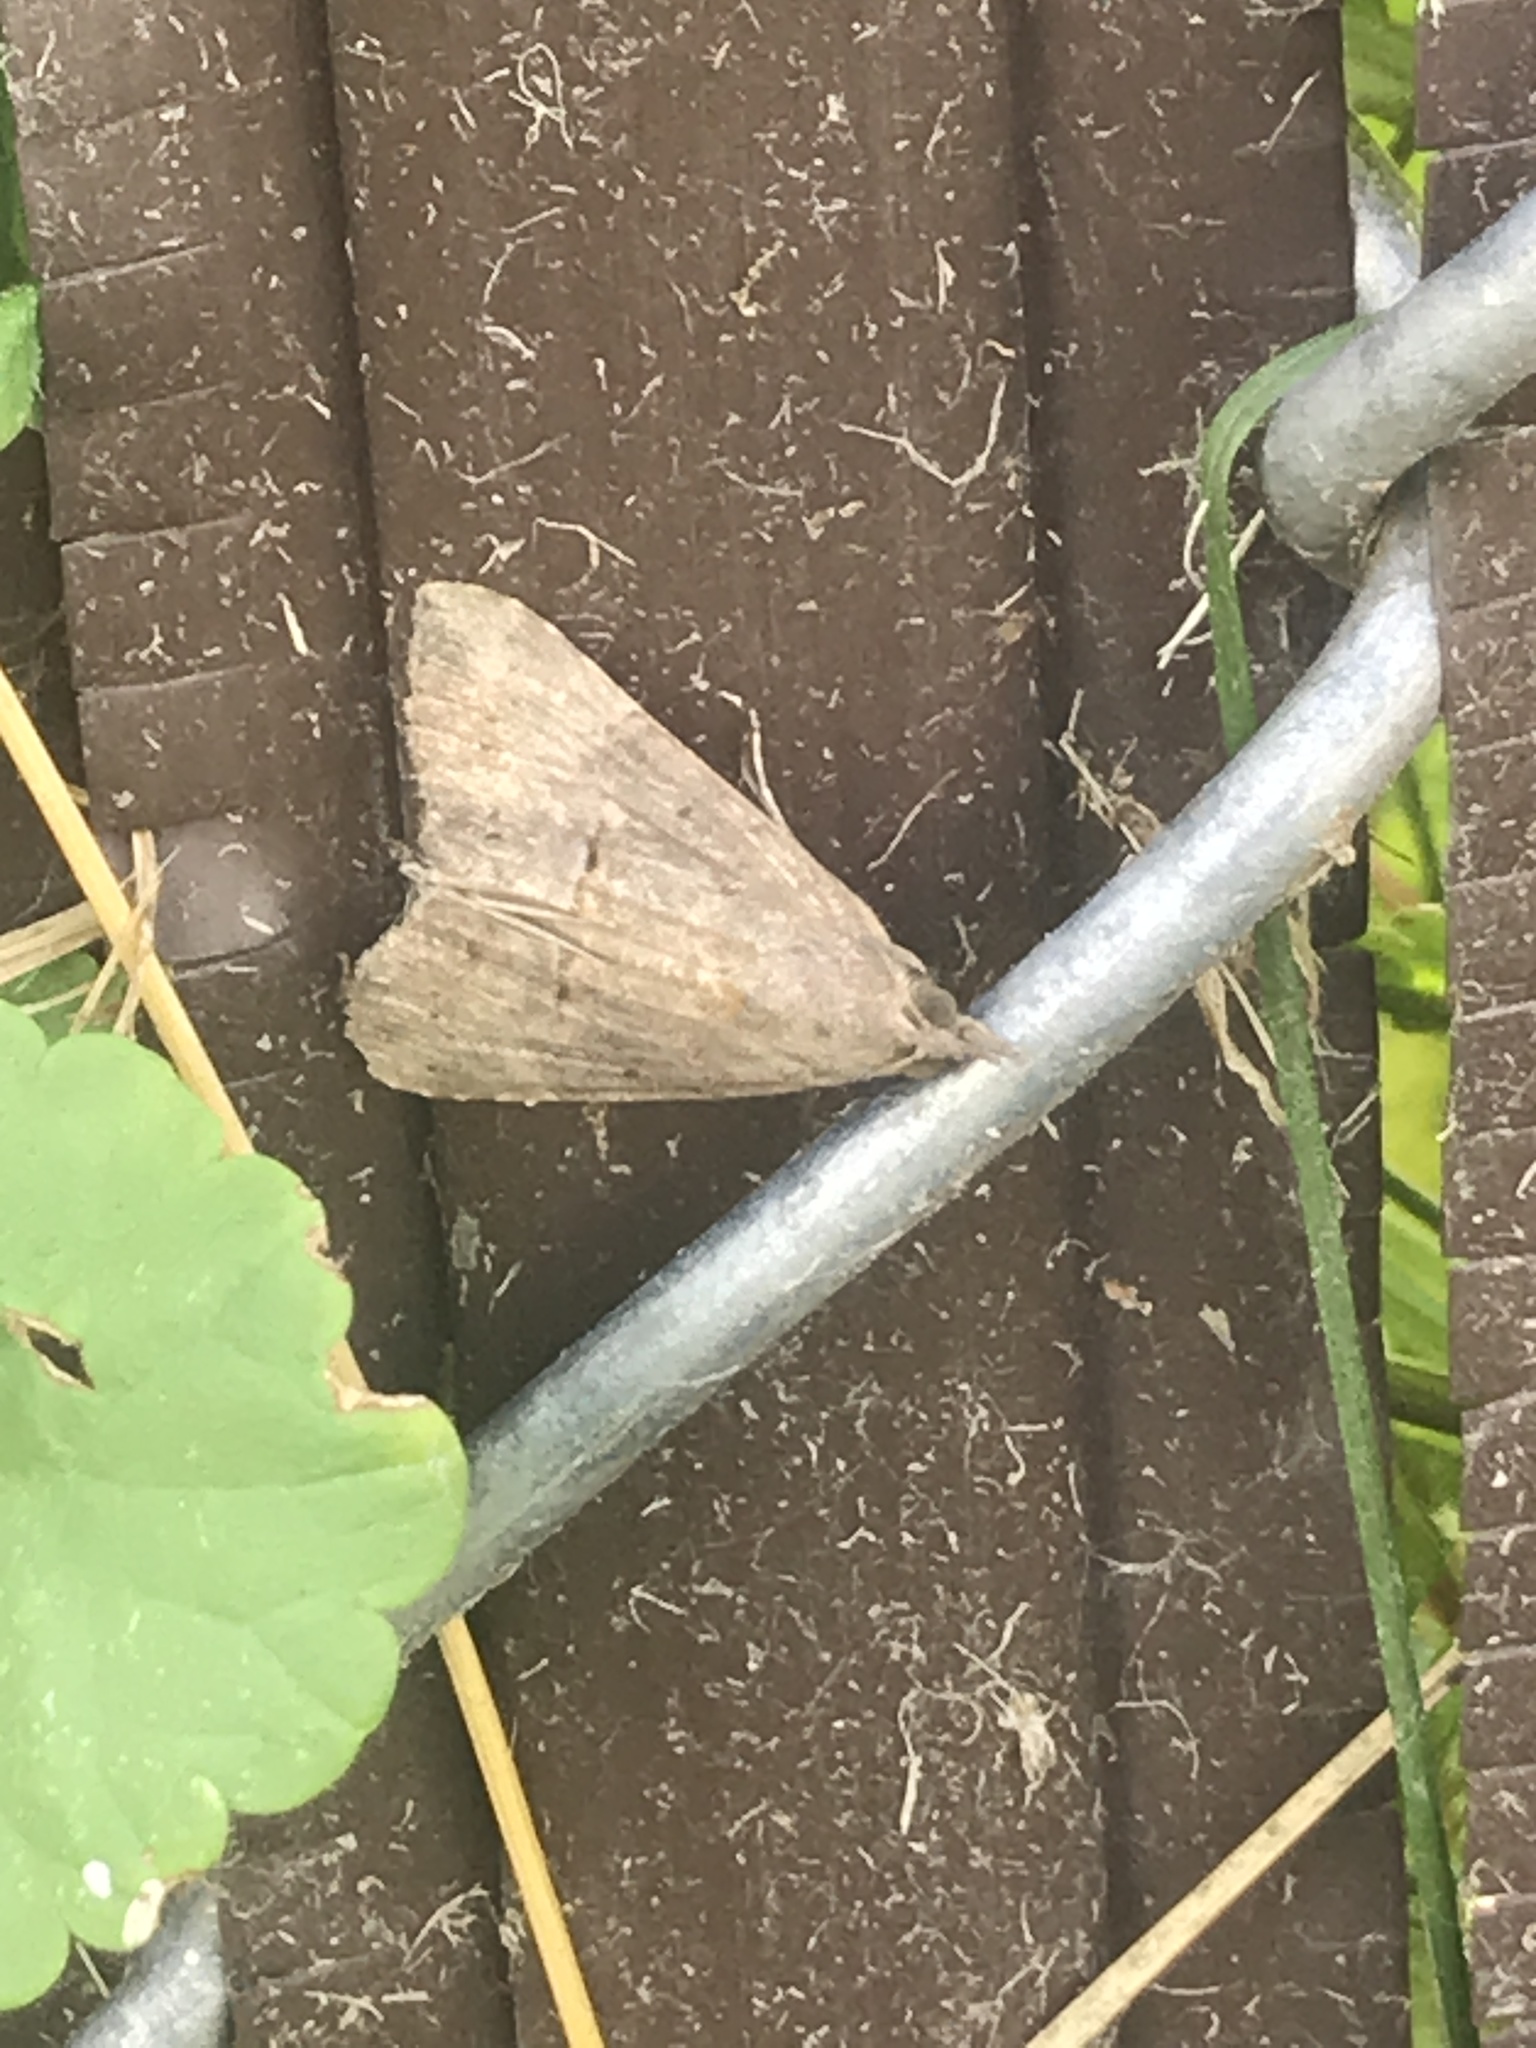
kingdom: Animalia
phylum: Arthropoda
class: Insecta
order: Lepidoptera
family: Erebidae
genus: Hypena
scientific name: Hypena scabra
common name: Green cloverworm
